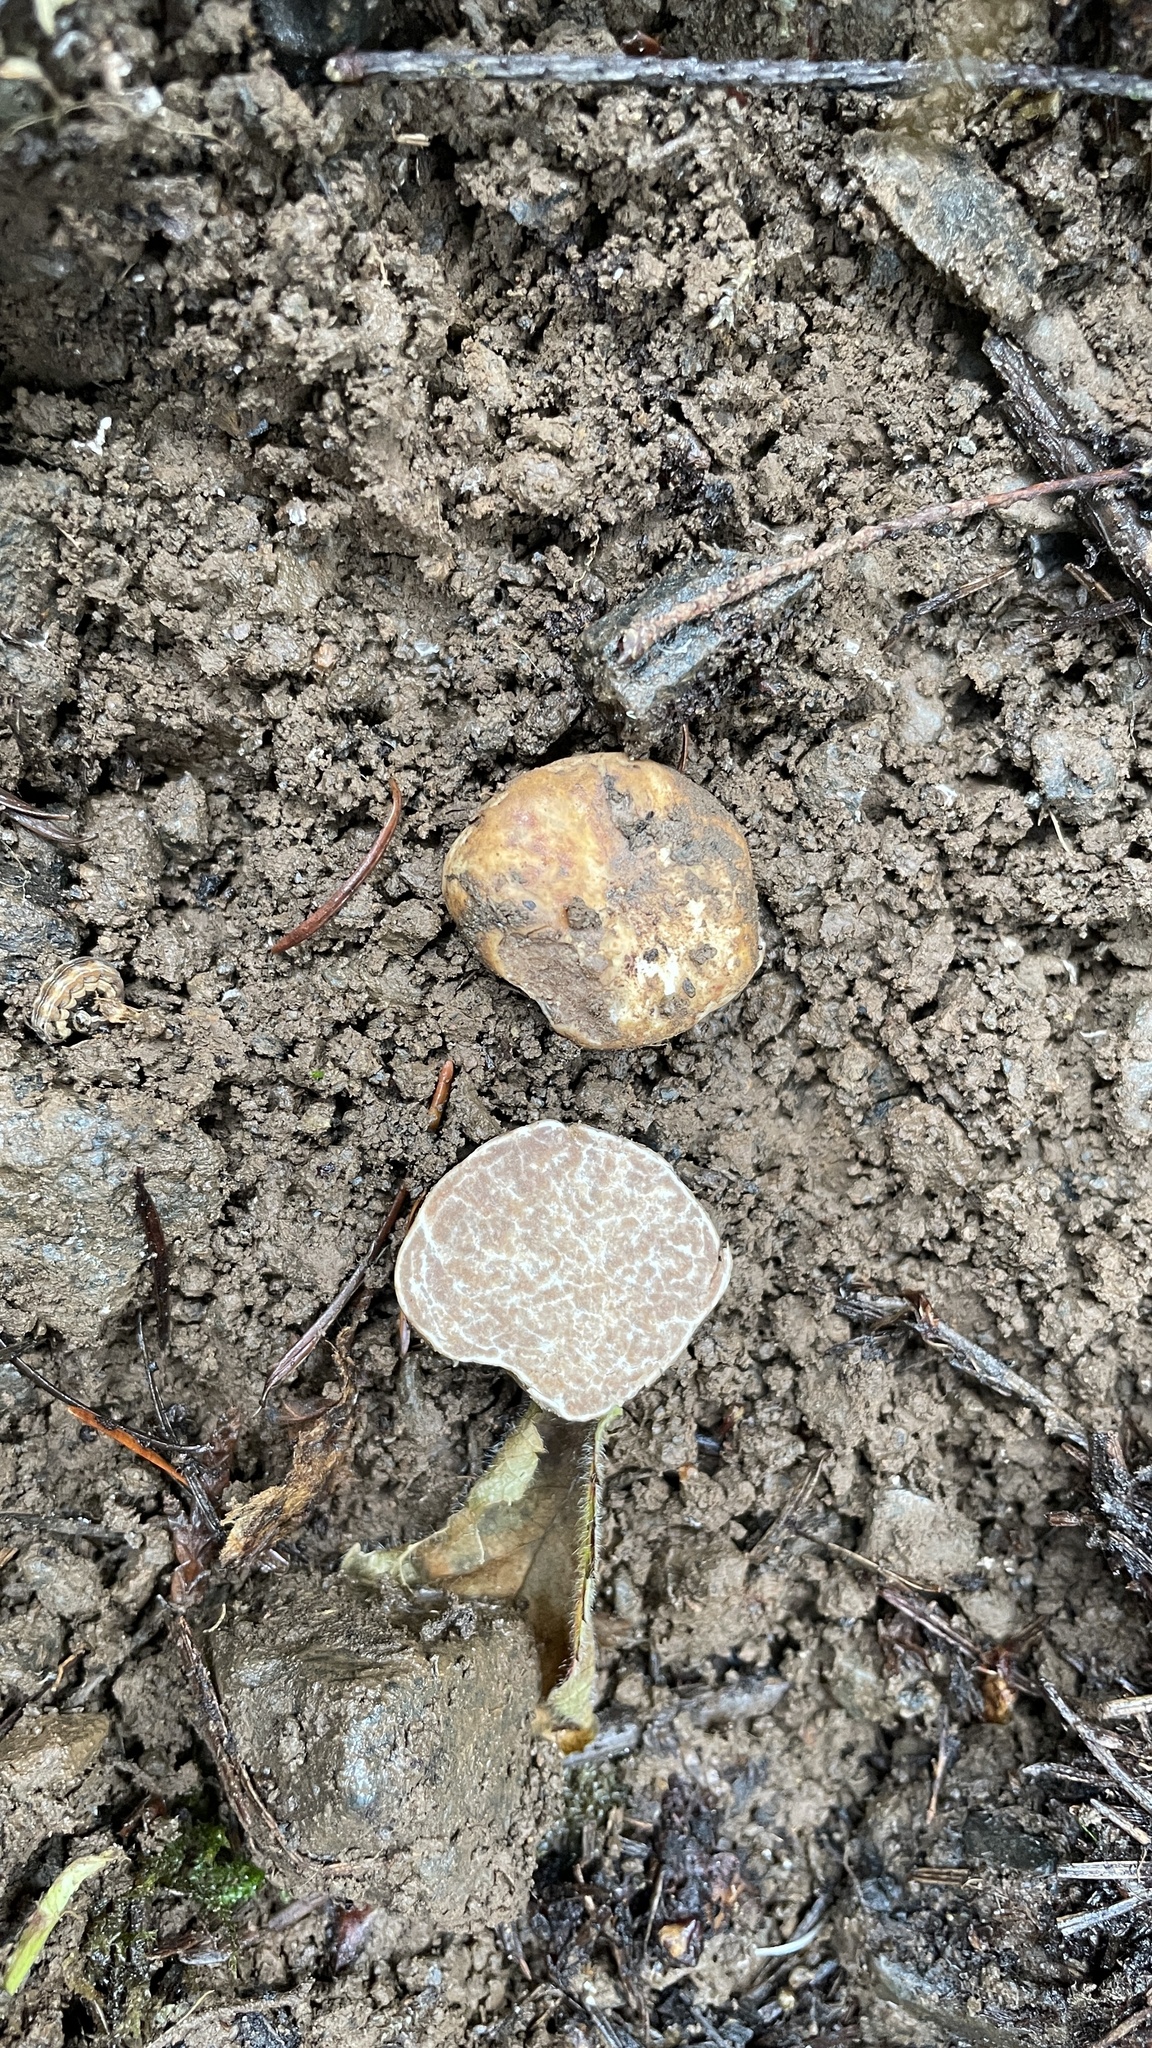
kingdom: Fungi
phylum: Ascomycota
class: Pezizomycetes
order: Pezizales
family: Tuberaceae
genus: Tuber
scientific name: Tuber oregonense
